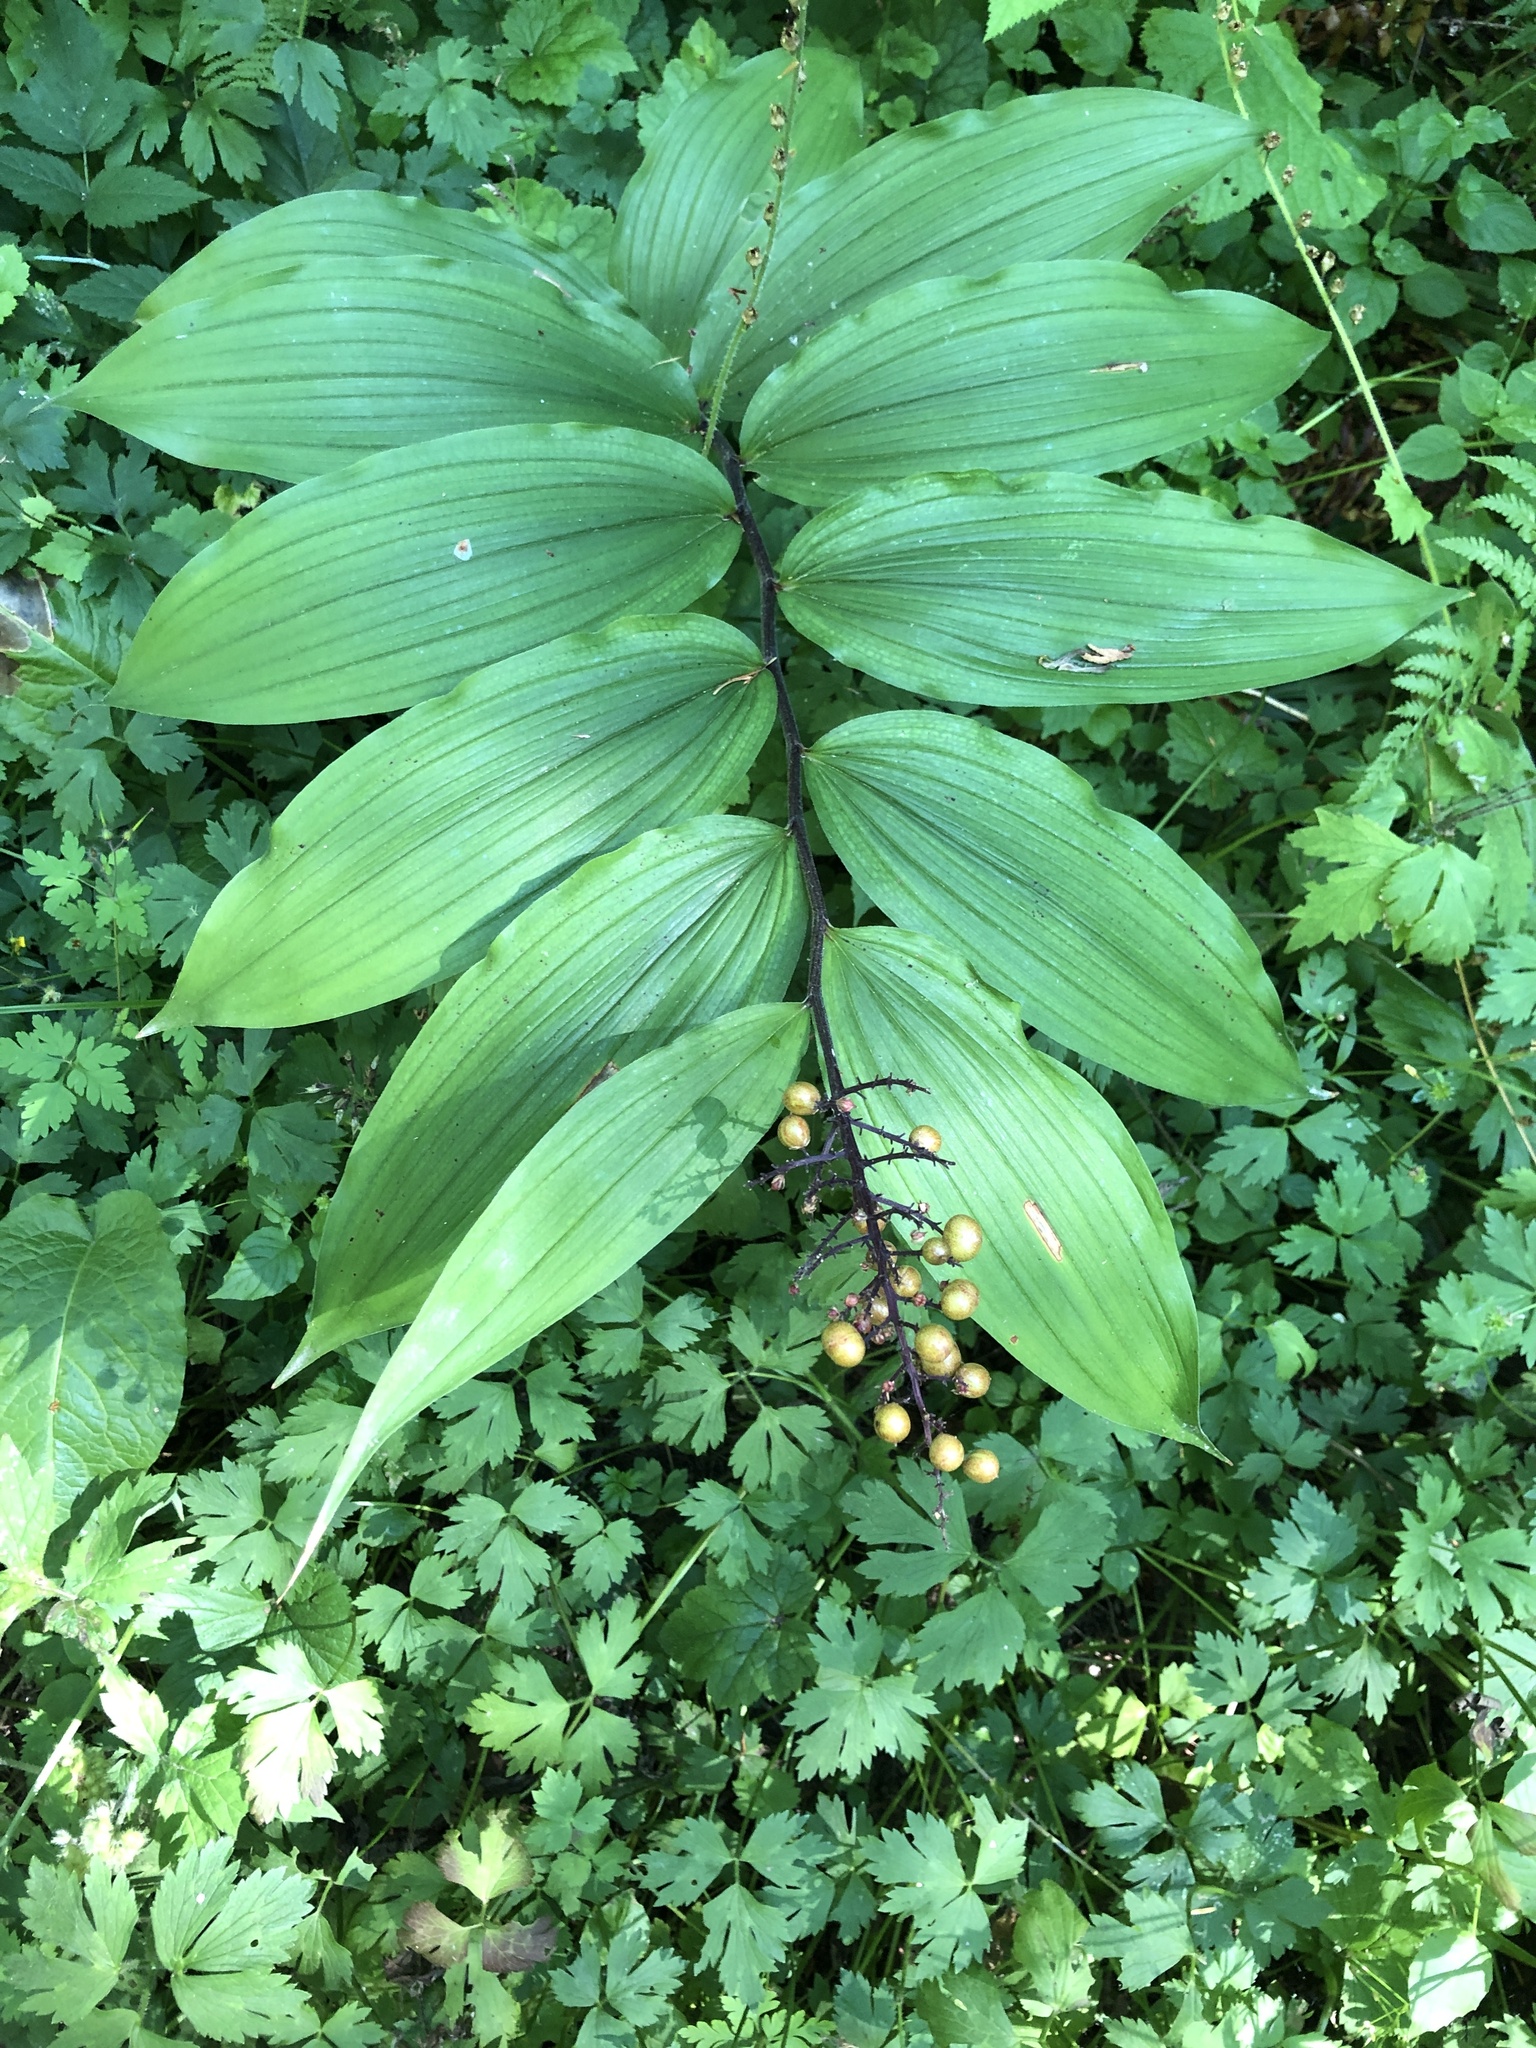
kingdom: Plantae
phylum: Tracheophyta
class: Liliopsida
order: Asparagales
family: Asparagaceae
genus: Maianthemum
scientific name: Maianthemum racemosum
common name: False spikenard
